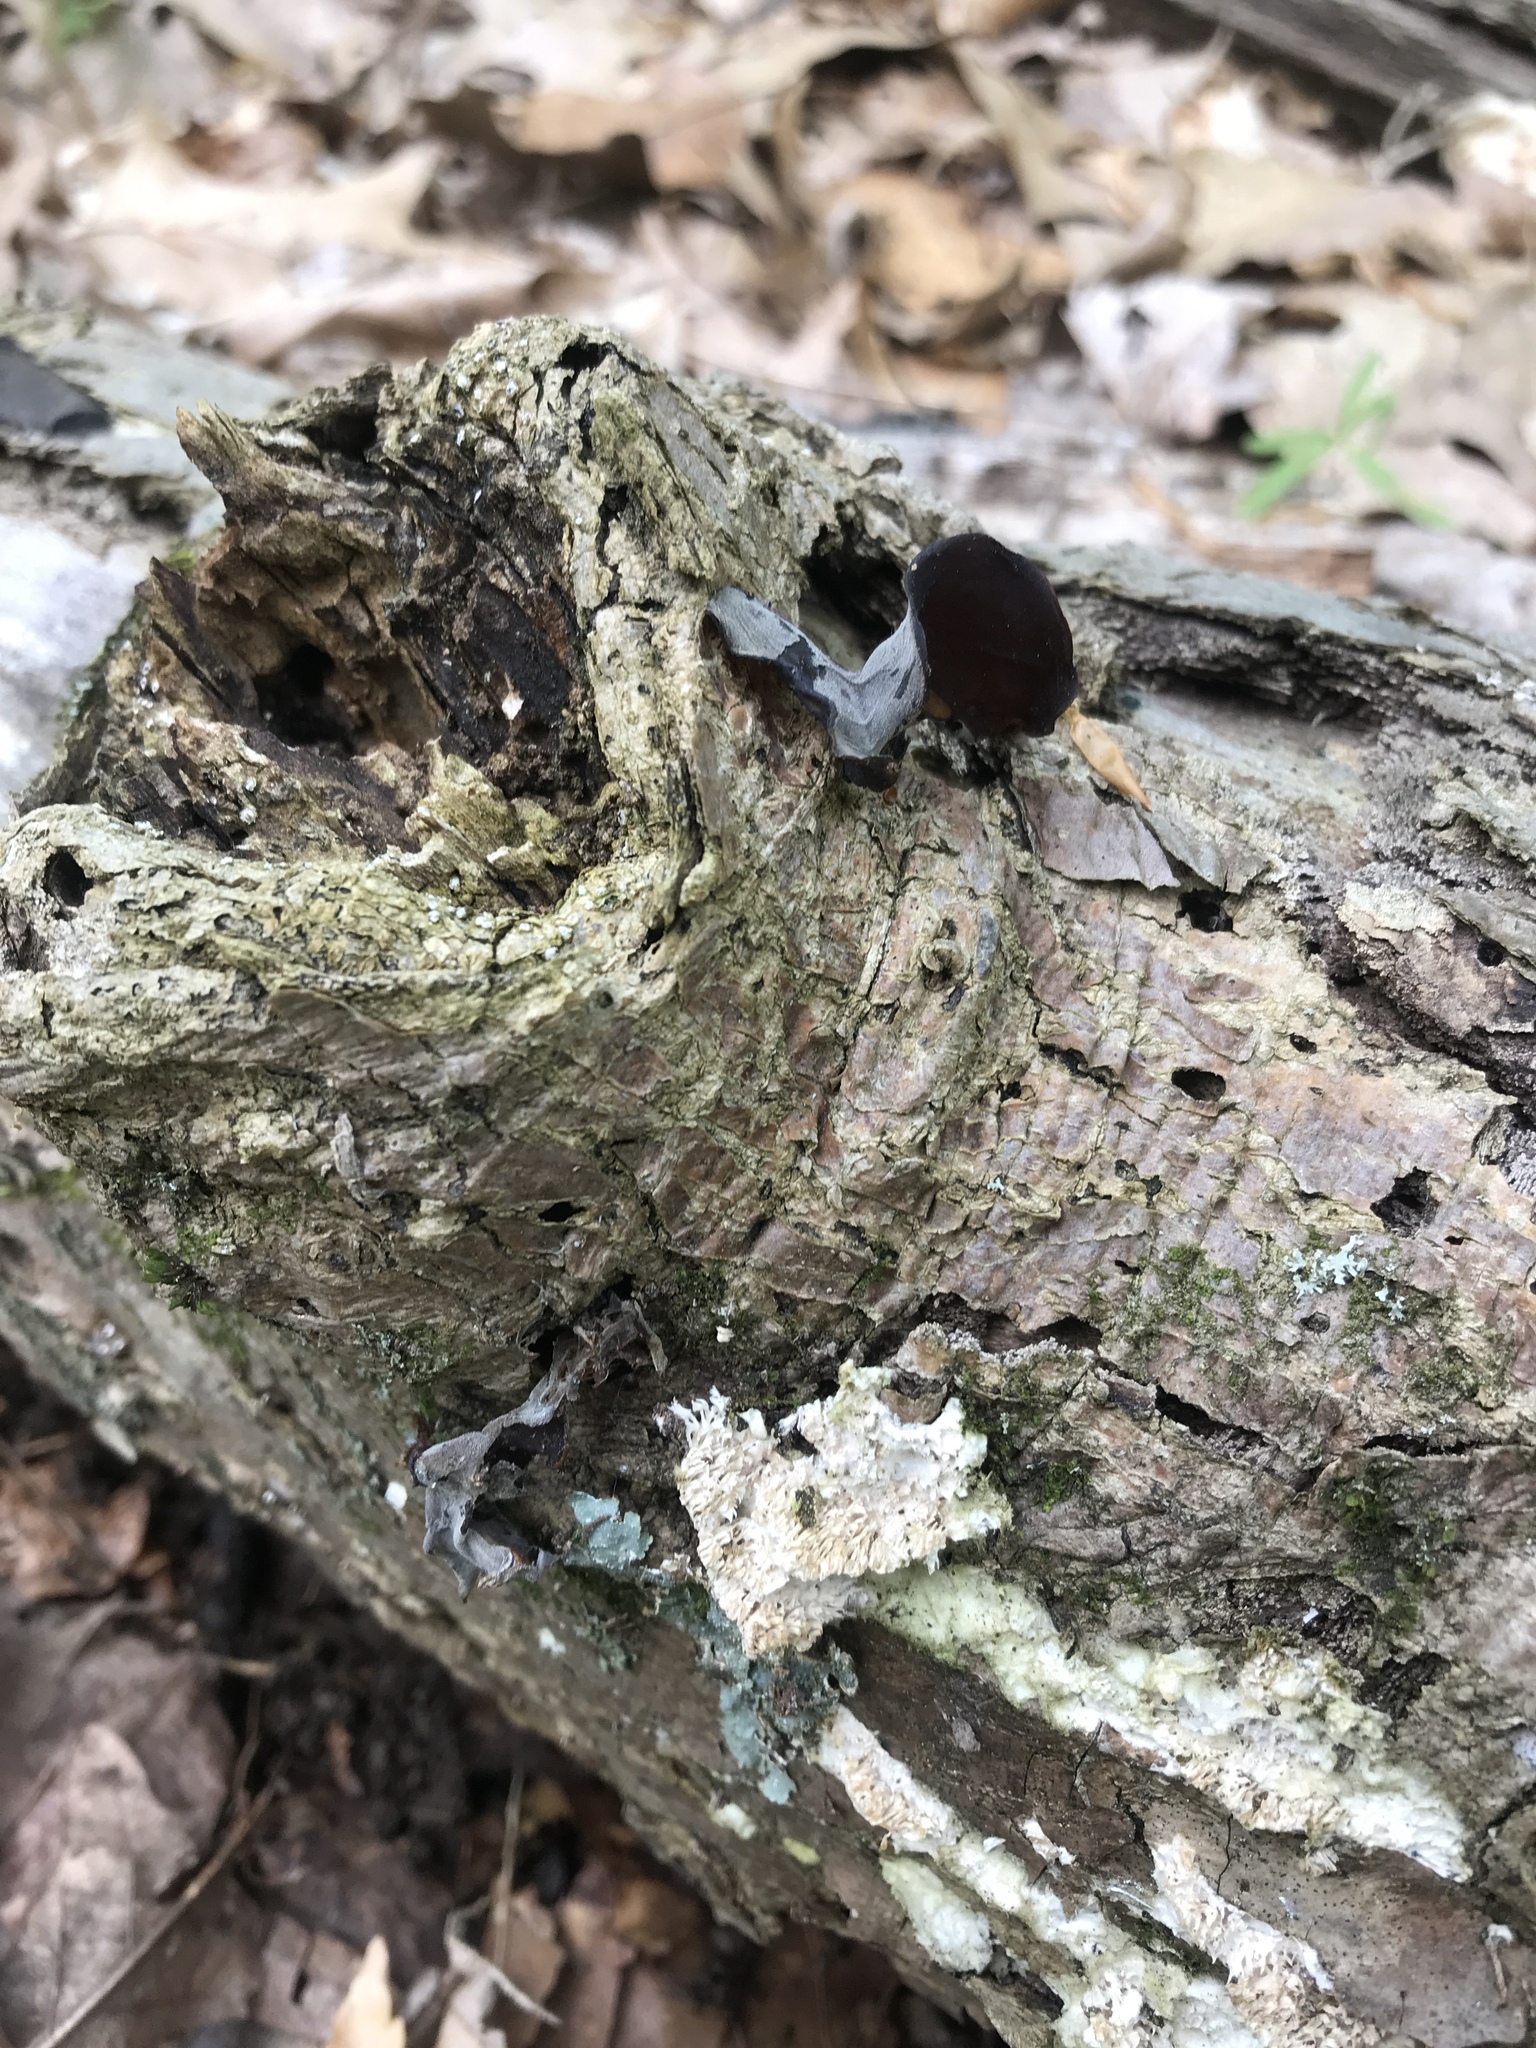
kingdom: Fungi
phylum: Basidiomycota
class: Agaricomycetes
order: Auriculariales
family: Auriculariaceae
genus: Auricularia
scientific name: Auricularia angiospermarum
